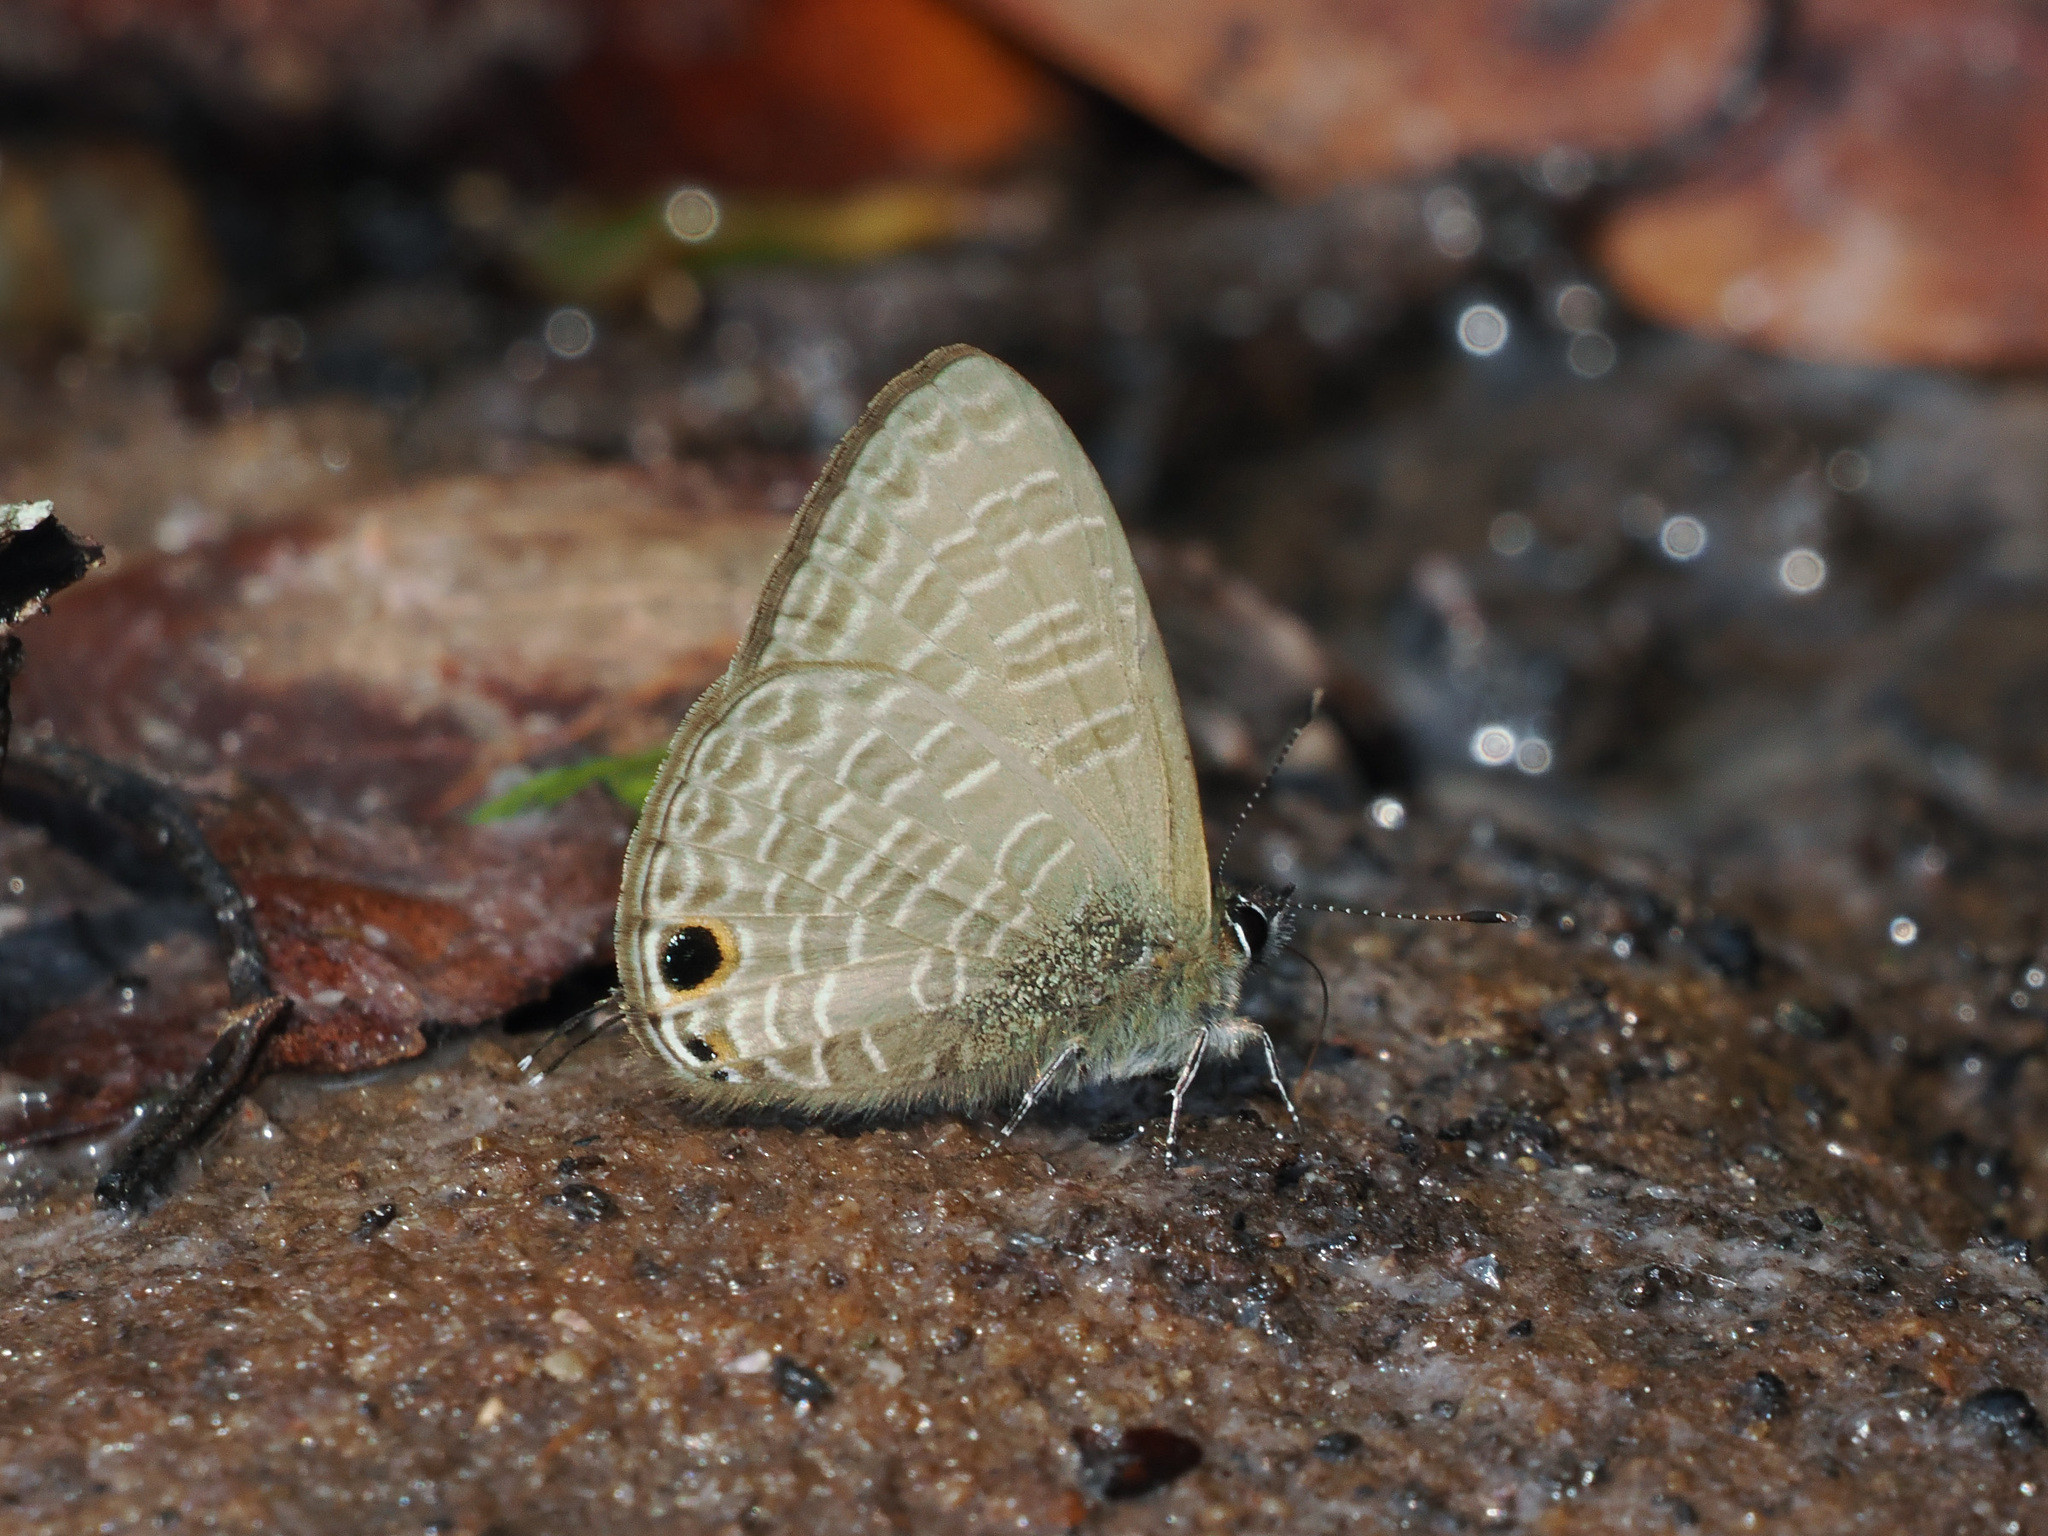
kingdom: Animalia
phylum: Arthropoda
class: Insecta
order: Lepidoptera
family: Lycaenidae
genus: Nacaduba
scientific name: Nacaduba beroe
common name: Opaque sixline blue
